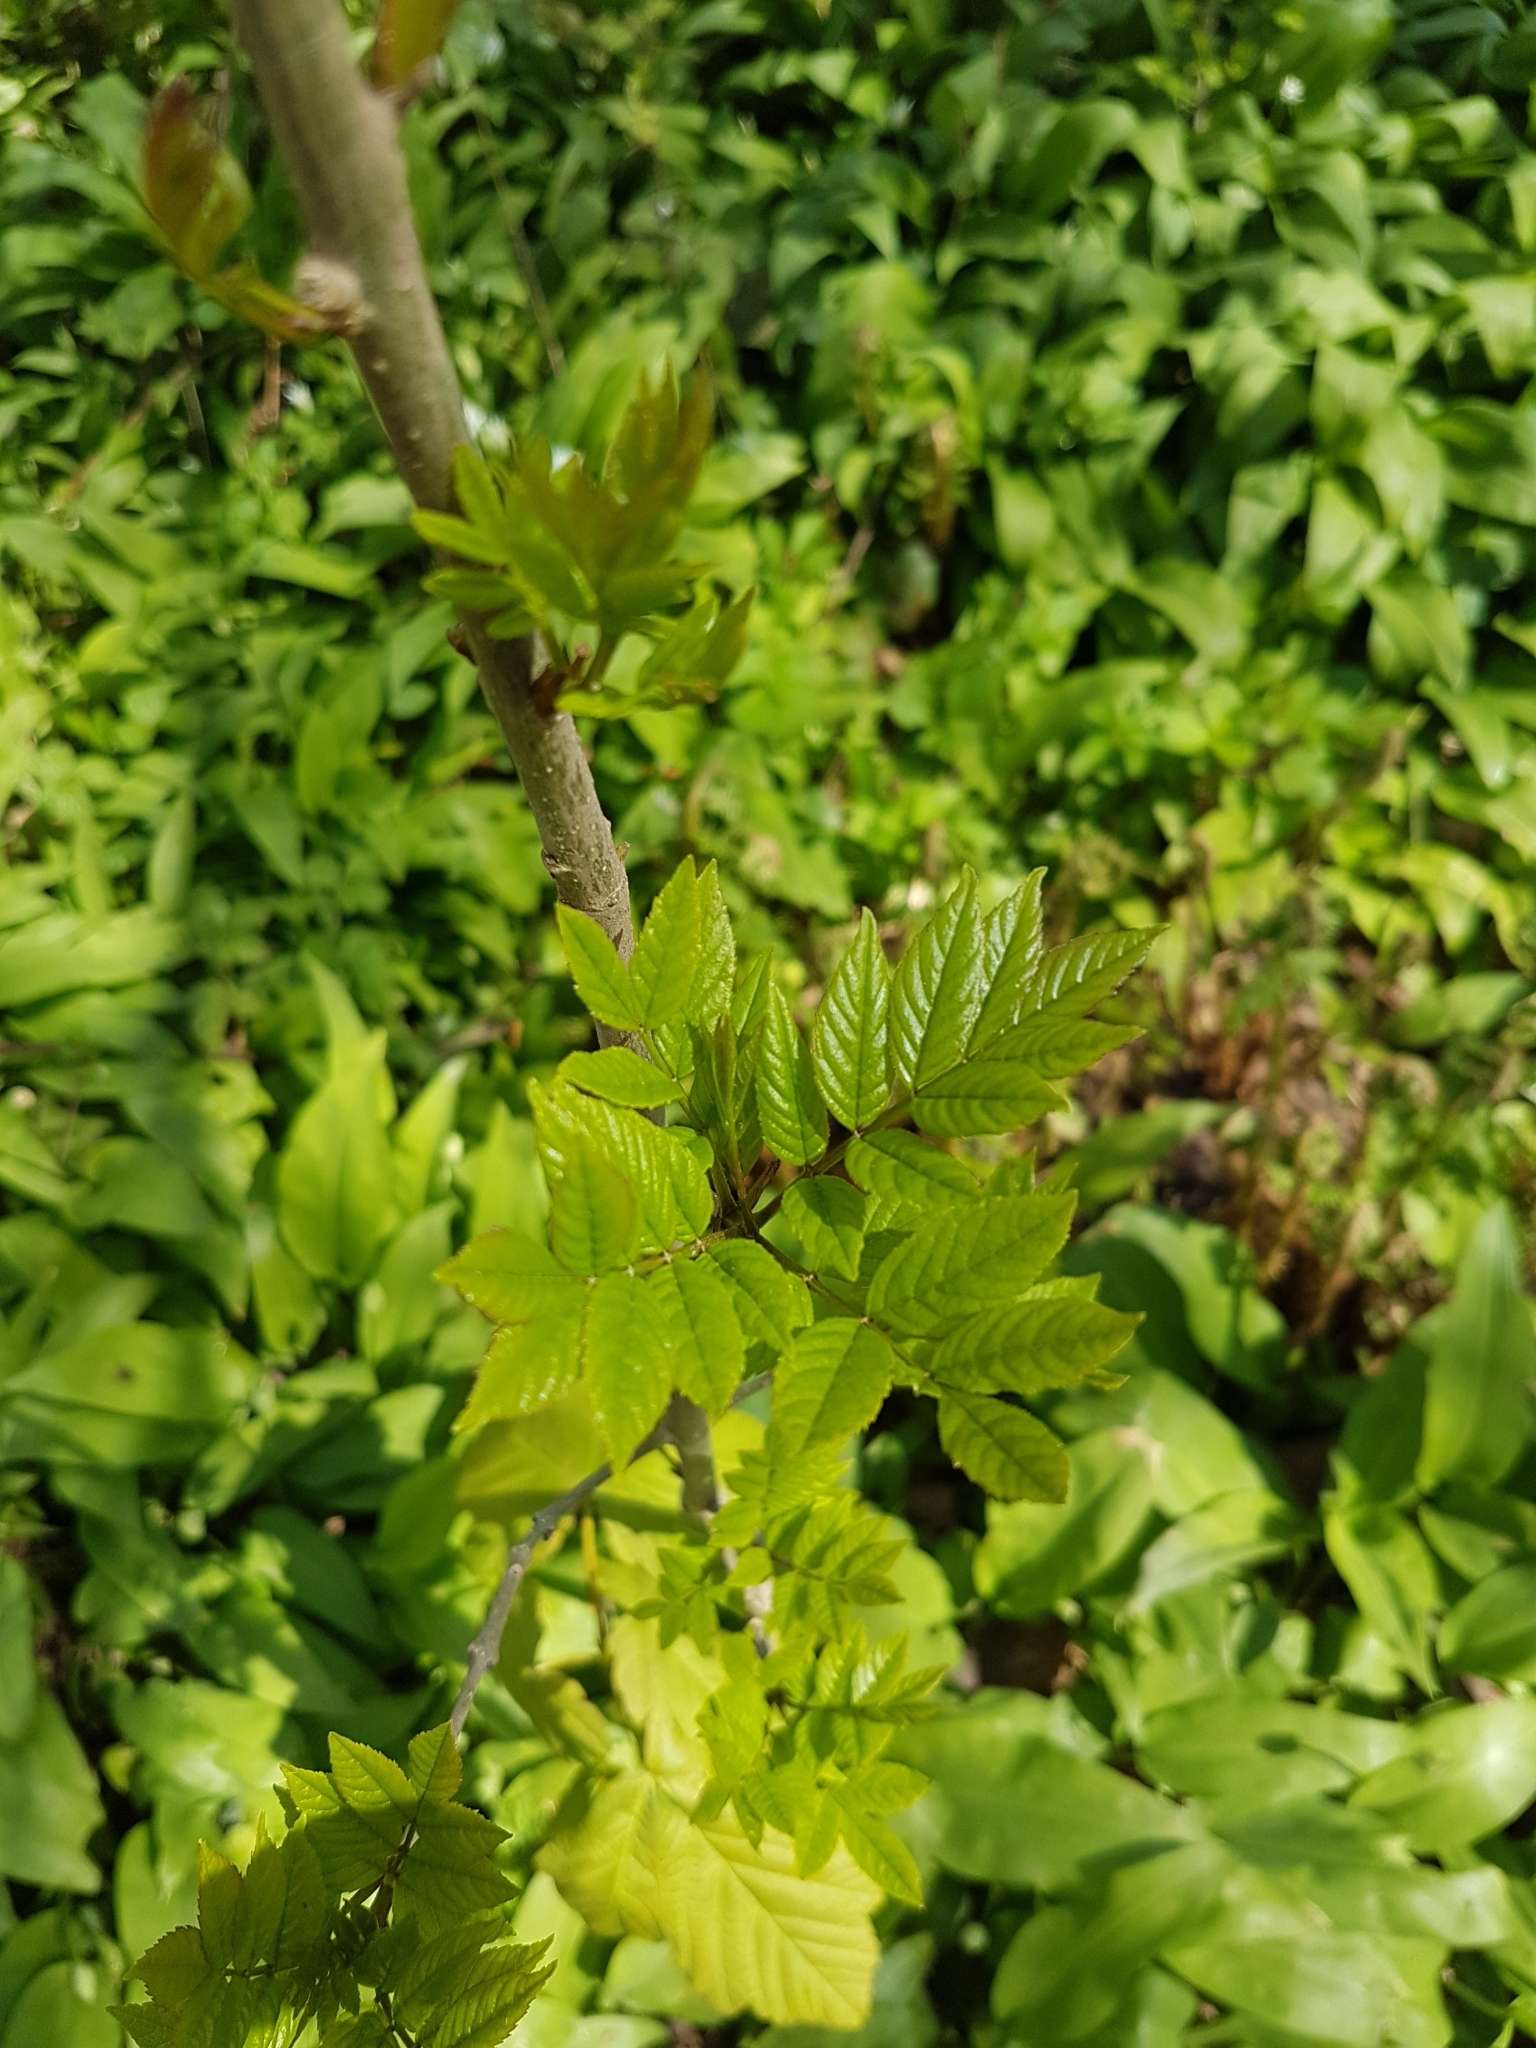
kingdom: Plantae
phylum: Tracheophyta
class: Magnoliopsida
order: Lamiales
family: Oleaceae
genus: Fraxinus
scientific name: Fraxinus excelsior
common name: European ash
